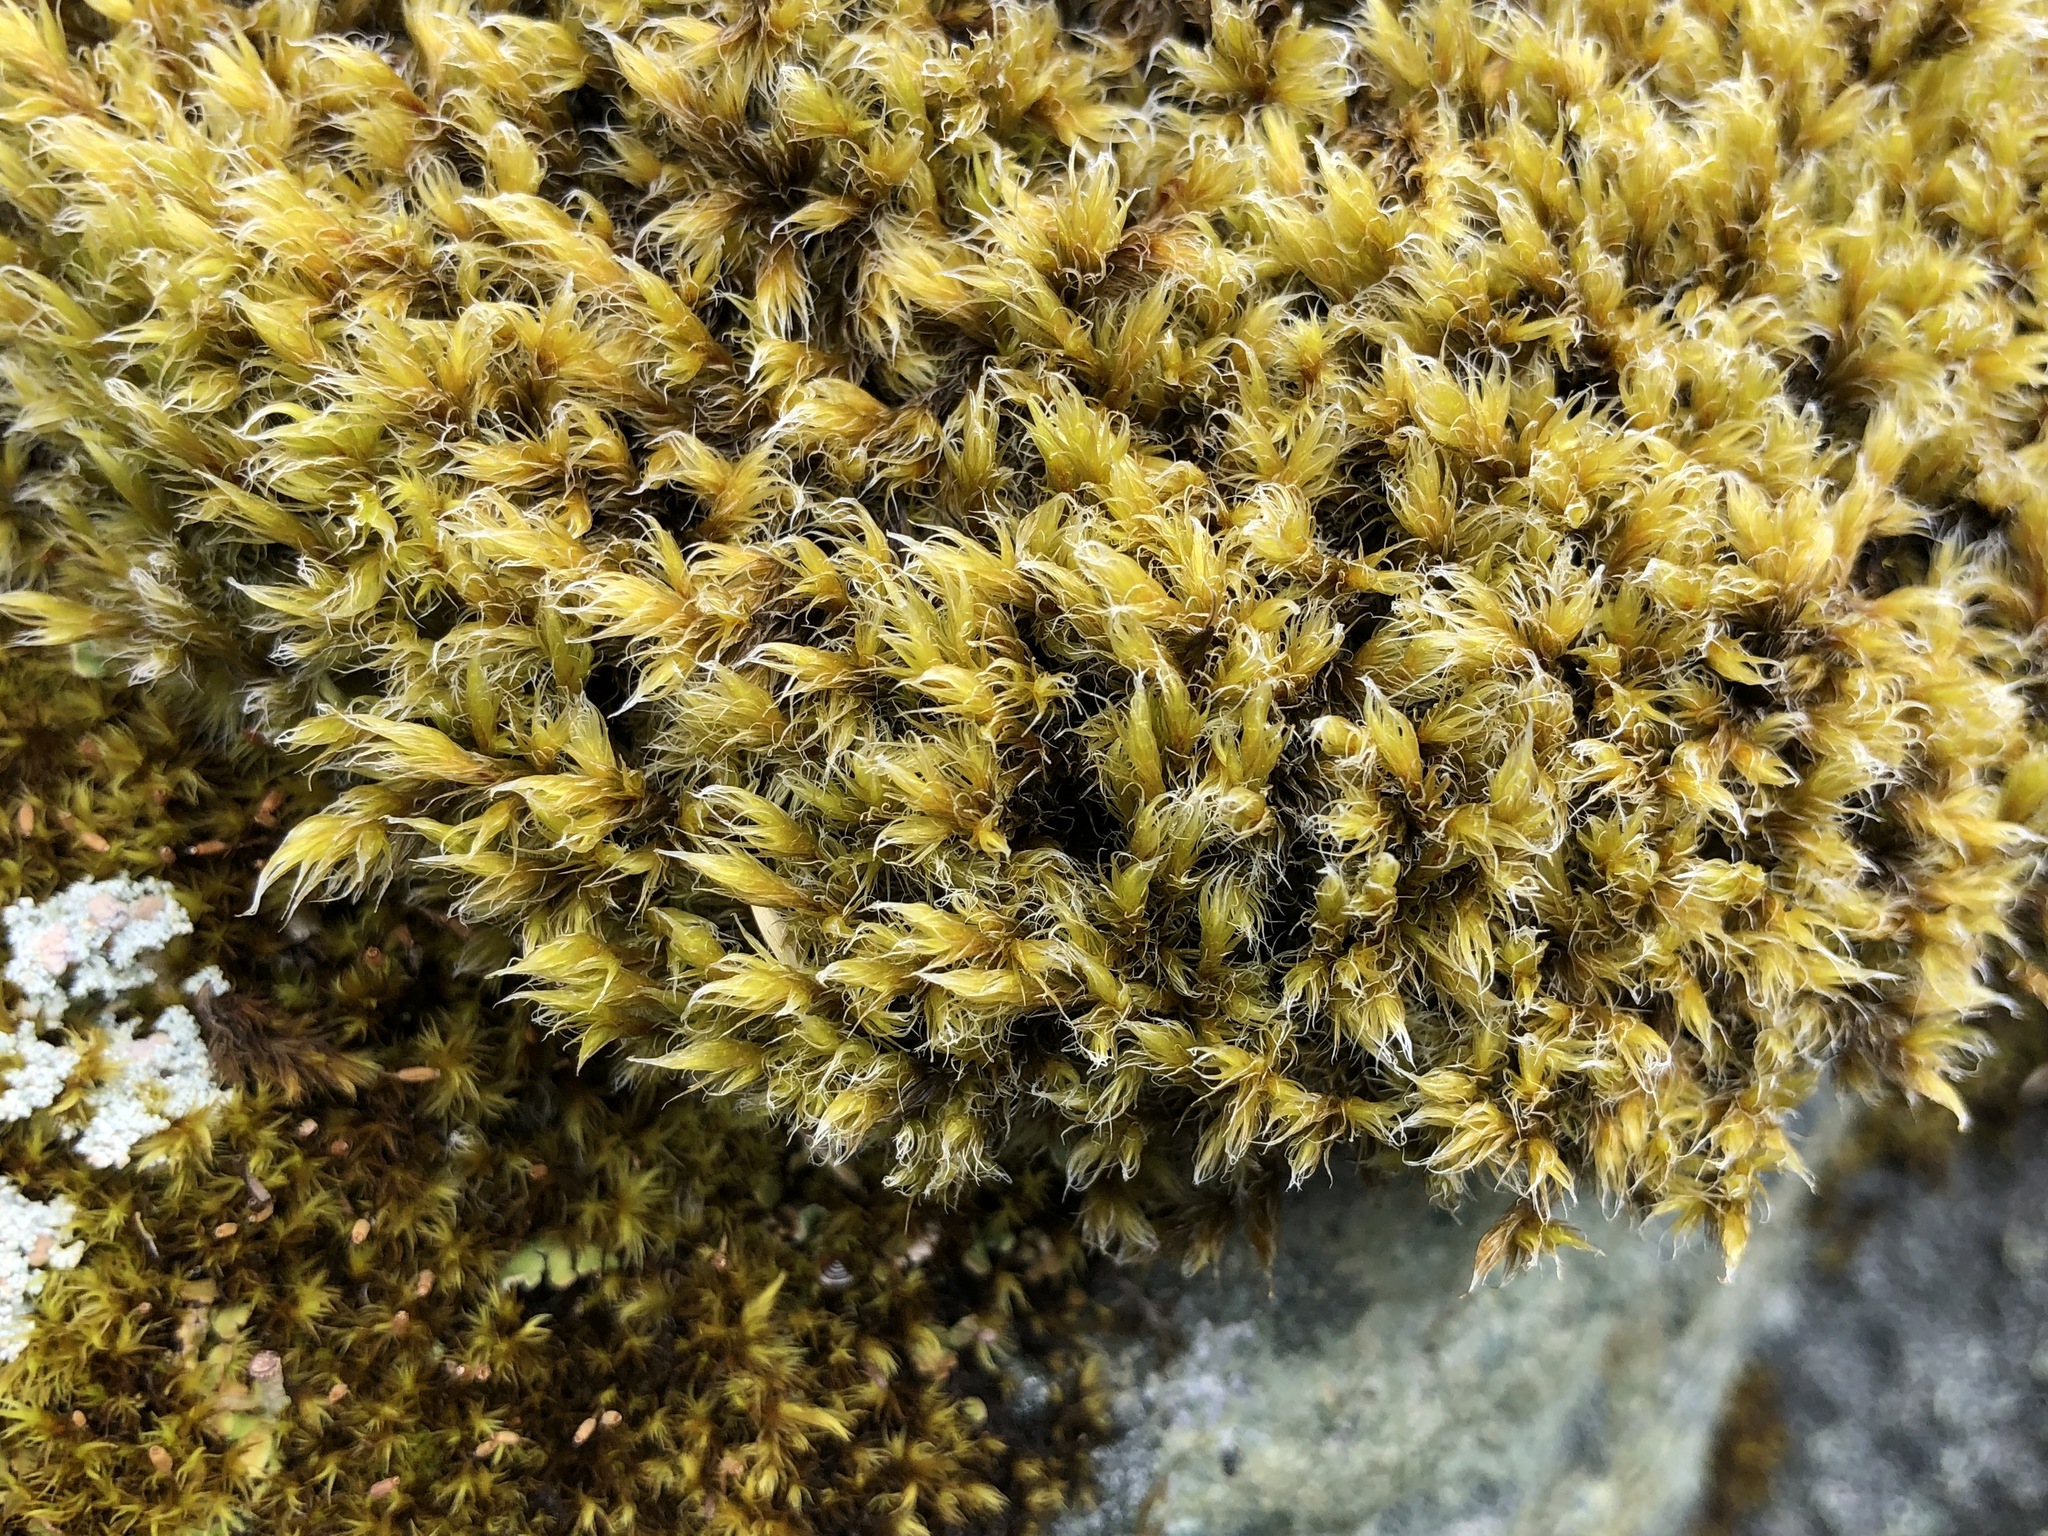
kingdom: Plantae
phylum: Bryophyta
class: Bryopsida
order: Grimmiales
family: Grimmiaceae
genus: Racomitrium
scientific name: Racomitrium lanuginosum
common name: Hoary rock moss
